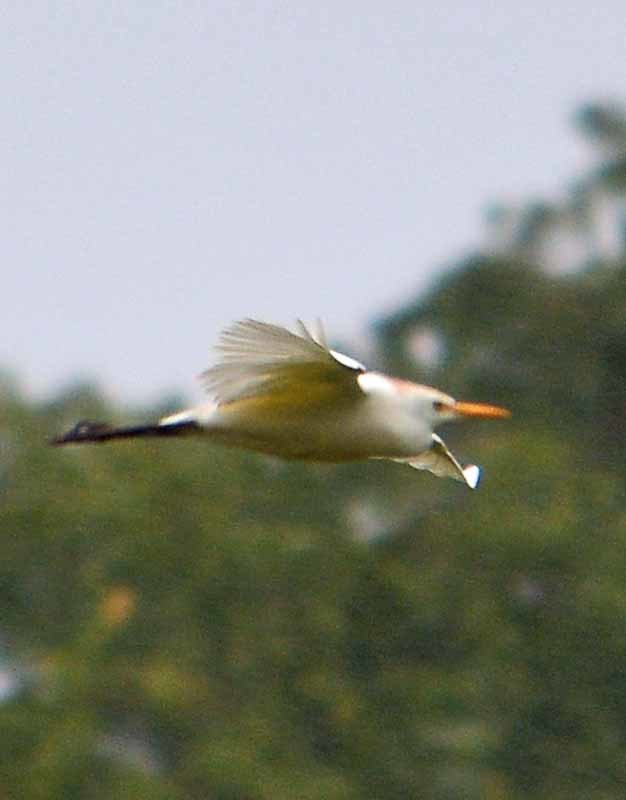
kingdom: Animalia
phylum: Chordata
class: Aves
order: Pelecaniformes
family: Ardeidae
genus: Bubulcus
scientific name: Bubulcus ibis
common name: Cattle egret
